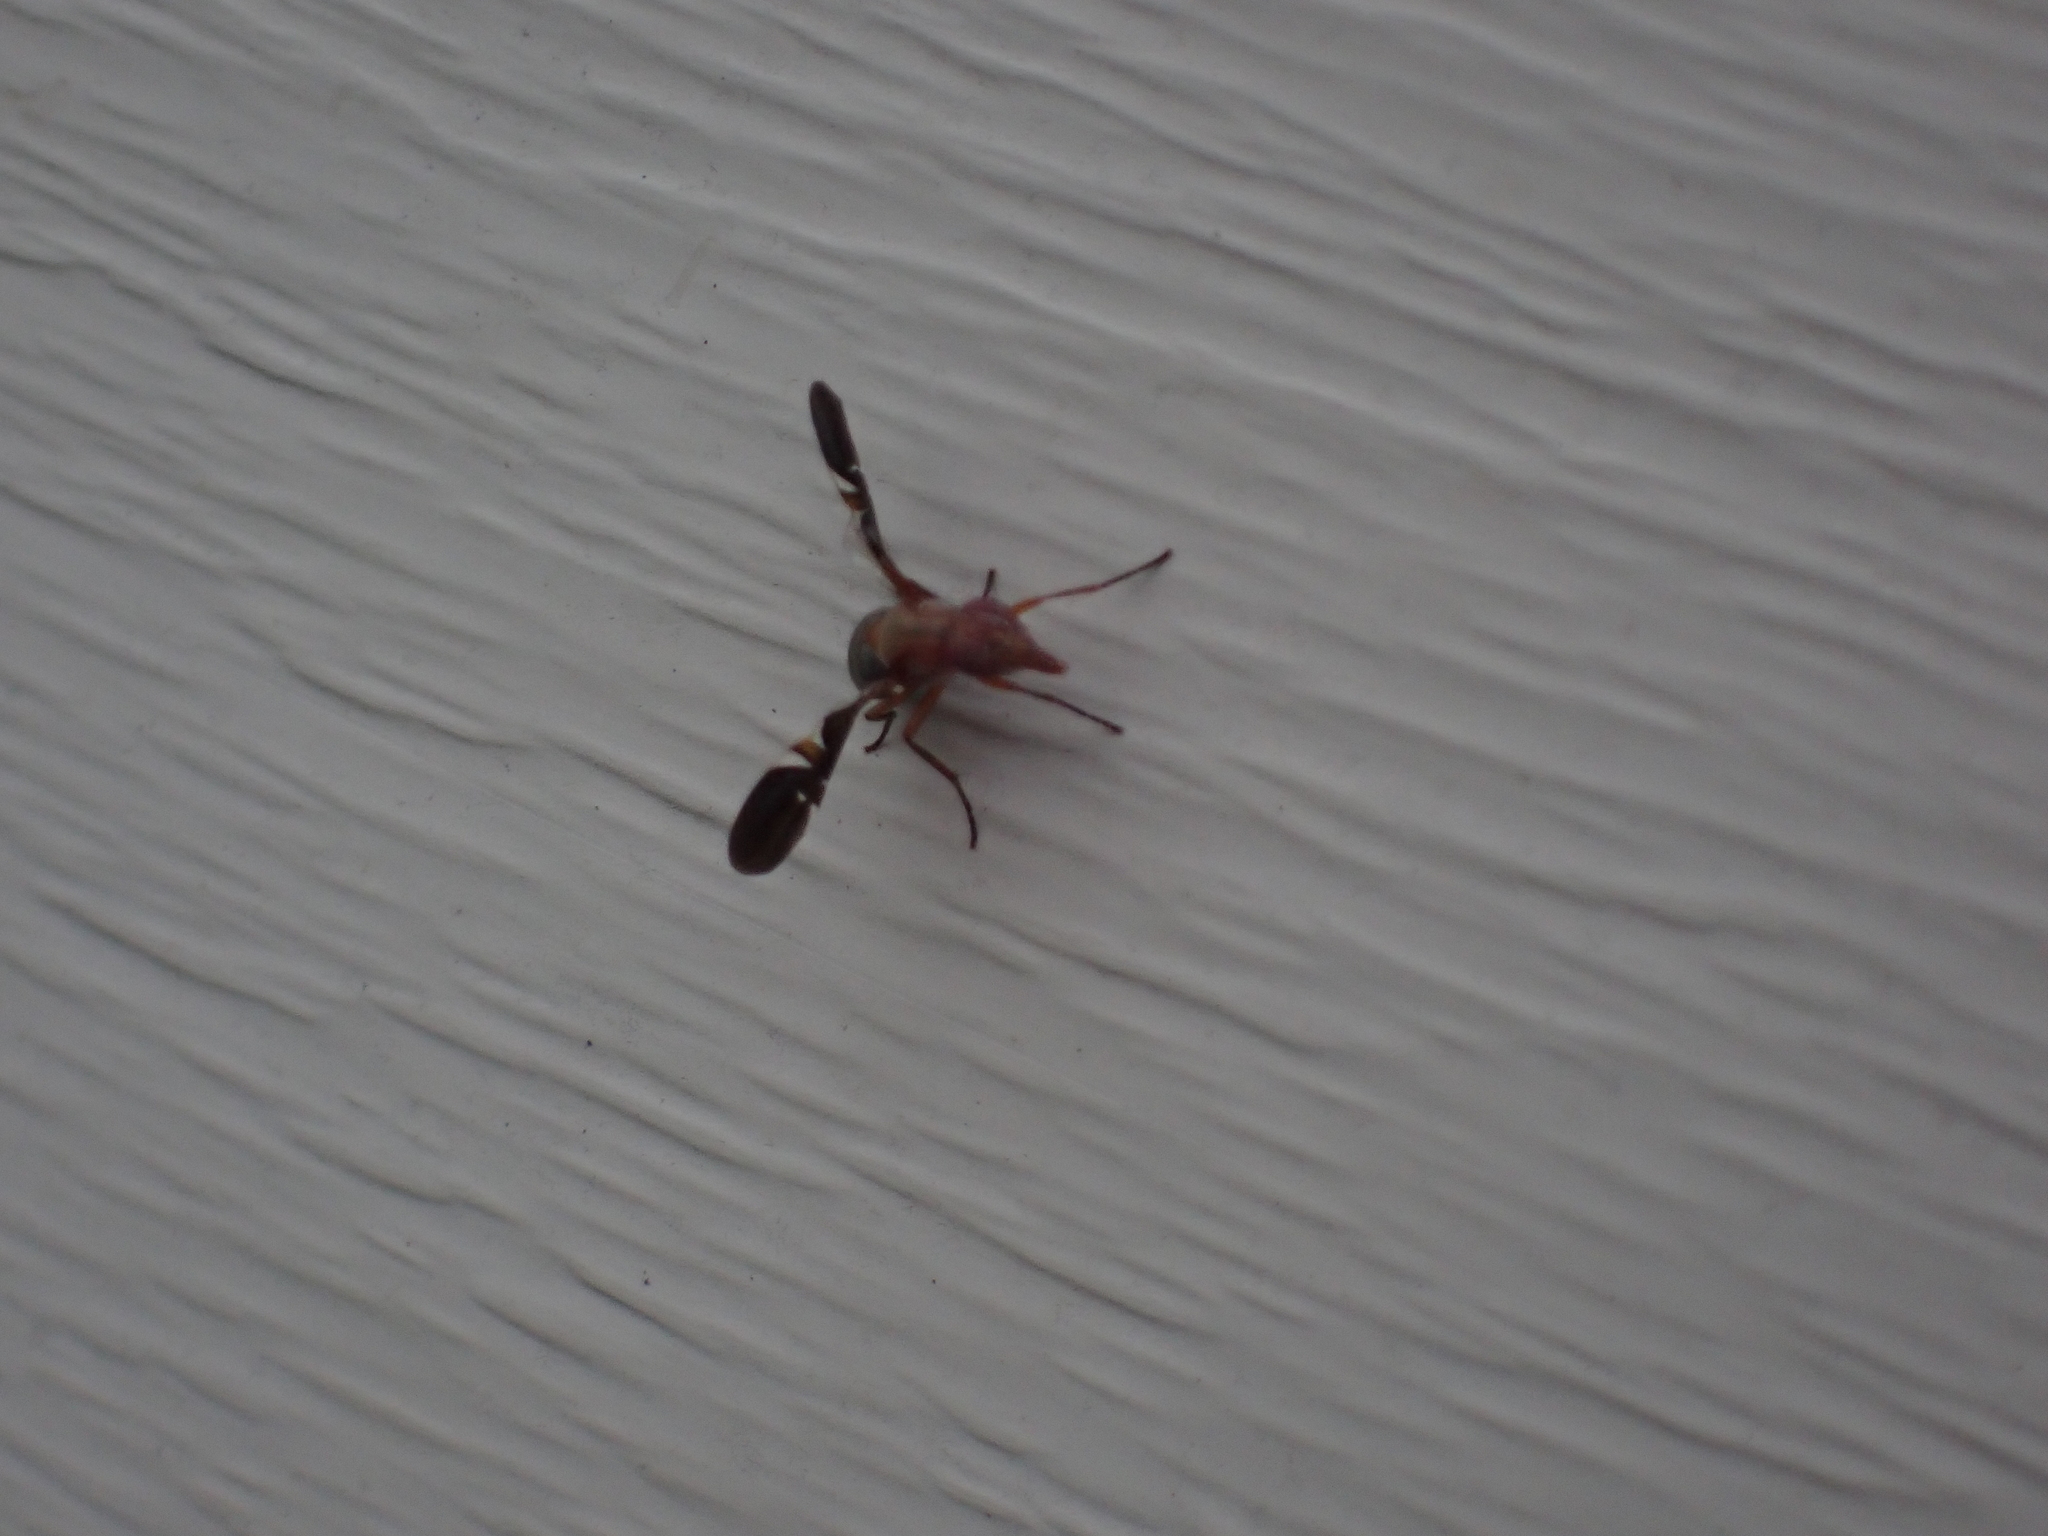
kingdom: Animalia
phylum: Arthropoda
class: Insecta
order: Diptera
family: Ulidiidae
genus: Delphinia
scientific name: Delphinia picta
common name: Common picture-winged fly
